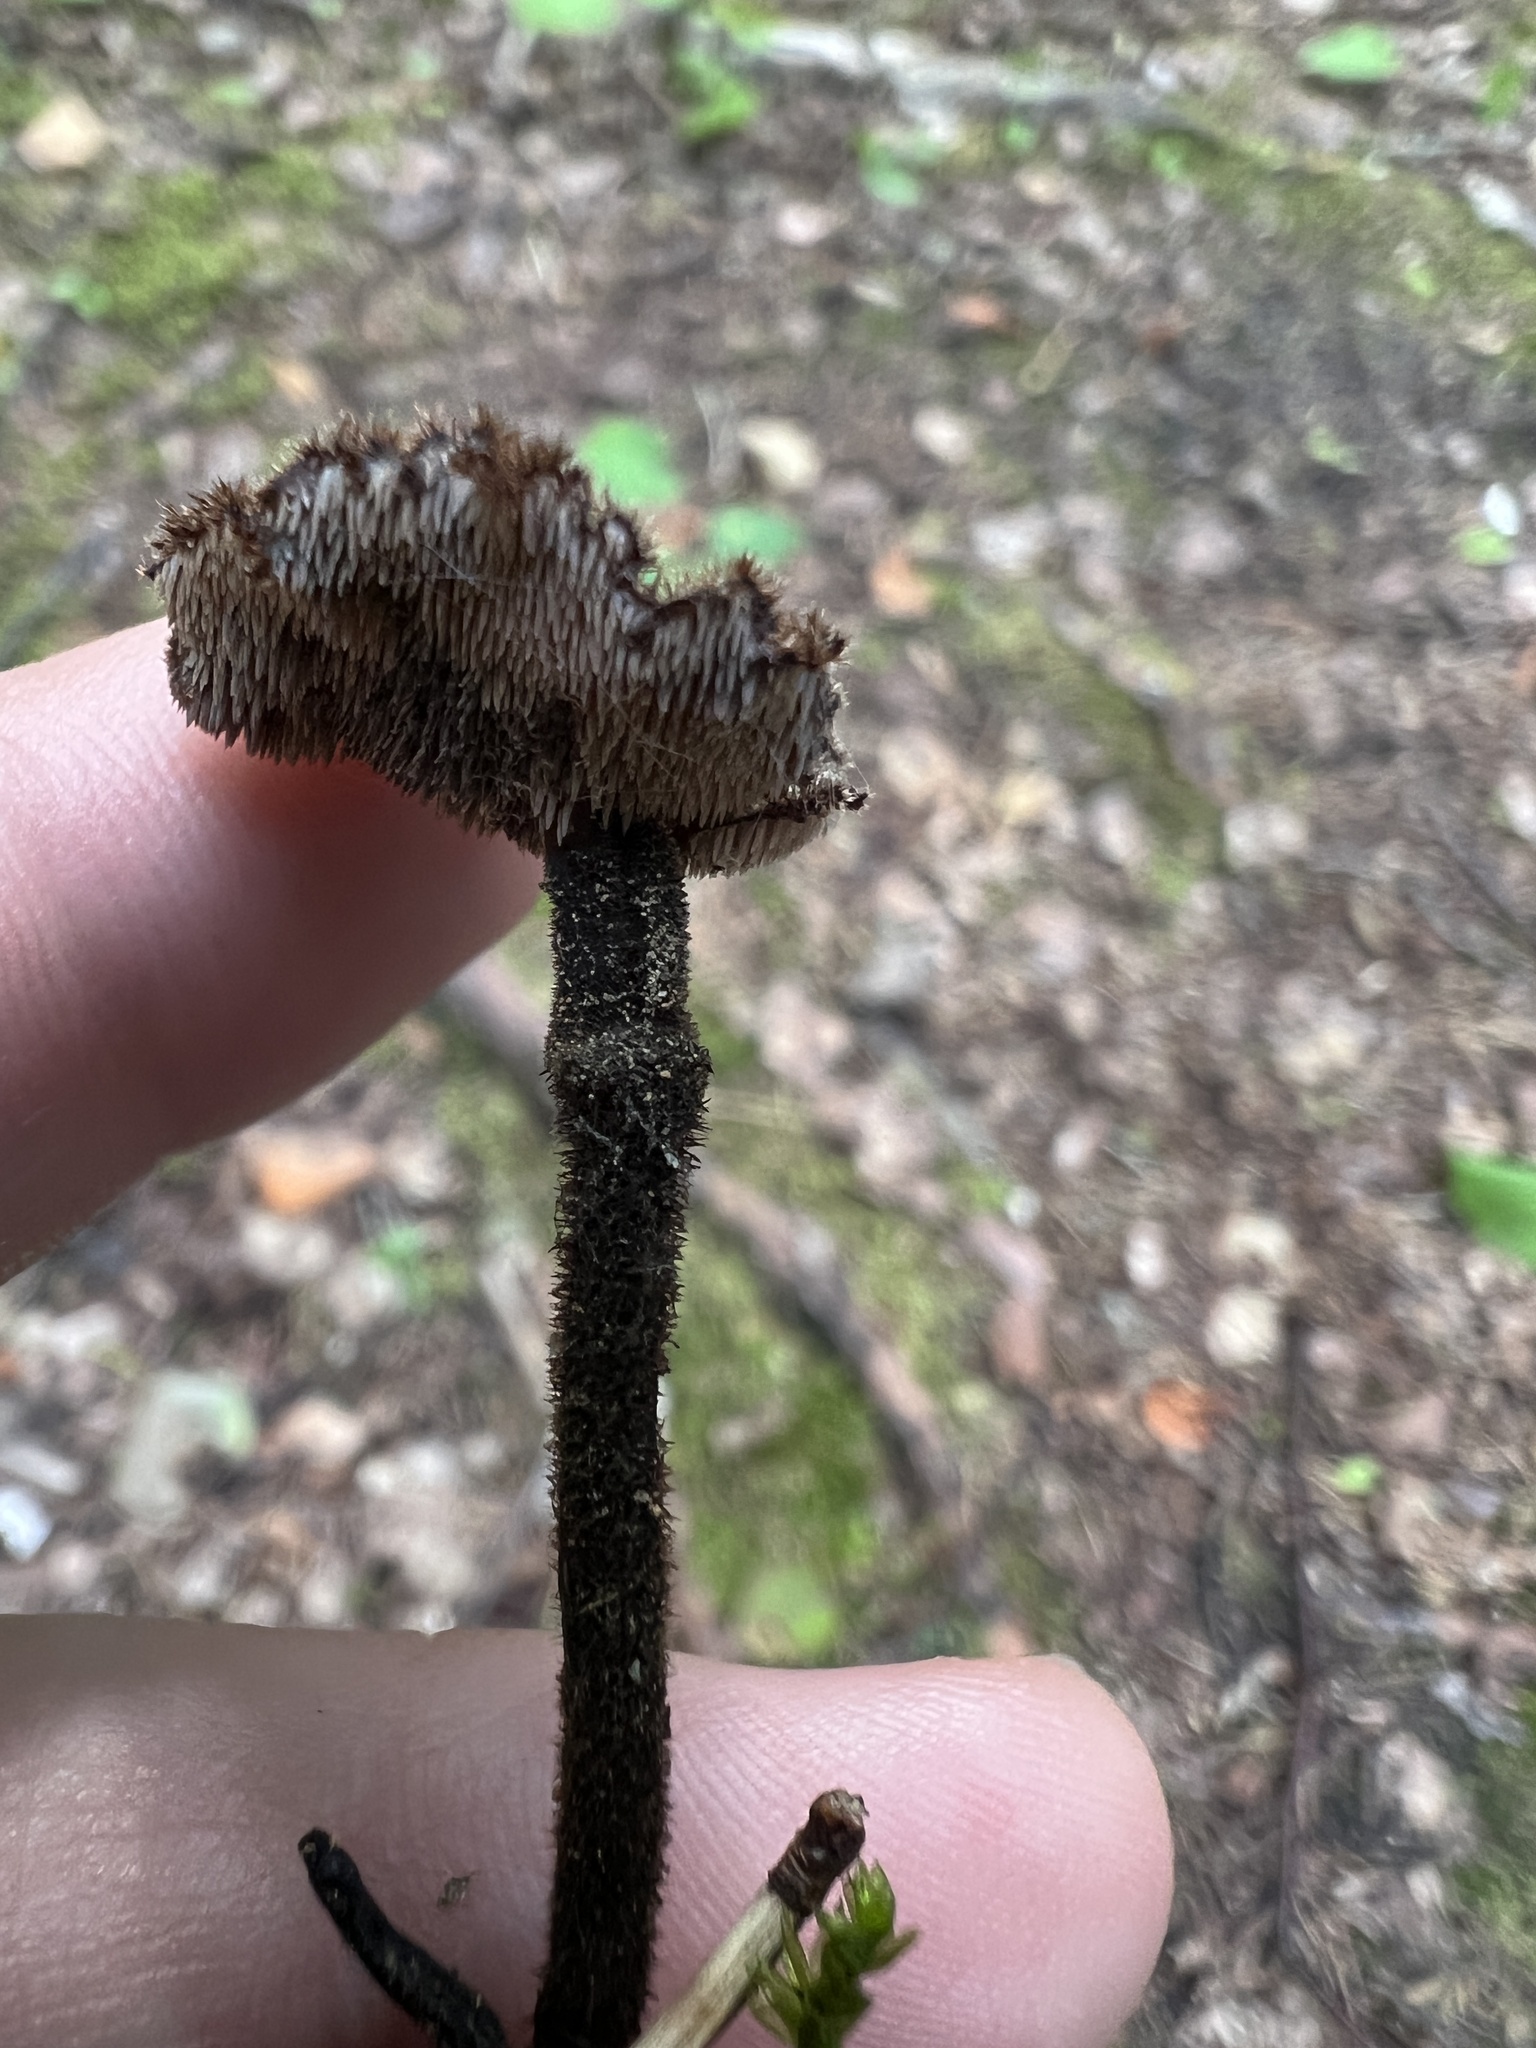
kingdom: Fungi
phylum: Basidiomycota
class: Agaricomycetes
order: Russulales
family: Auriscalpiaceae
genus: Auriscalpium
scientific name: Auriscalpium vulgare
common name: Earpick fungus
